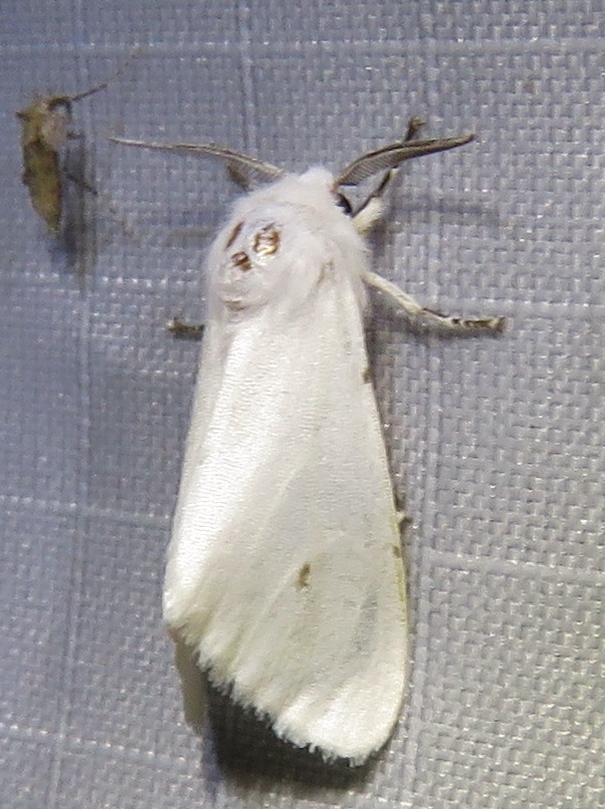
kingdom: Animalia
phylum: Arthropoda
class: Insecta
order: Lepidoptera
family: Erebidae
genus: Hyphantria
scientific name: Hyphantria cunea
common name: American white moth
